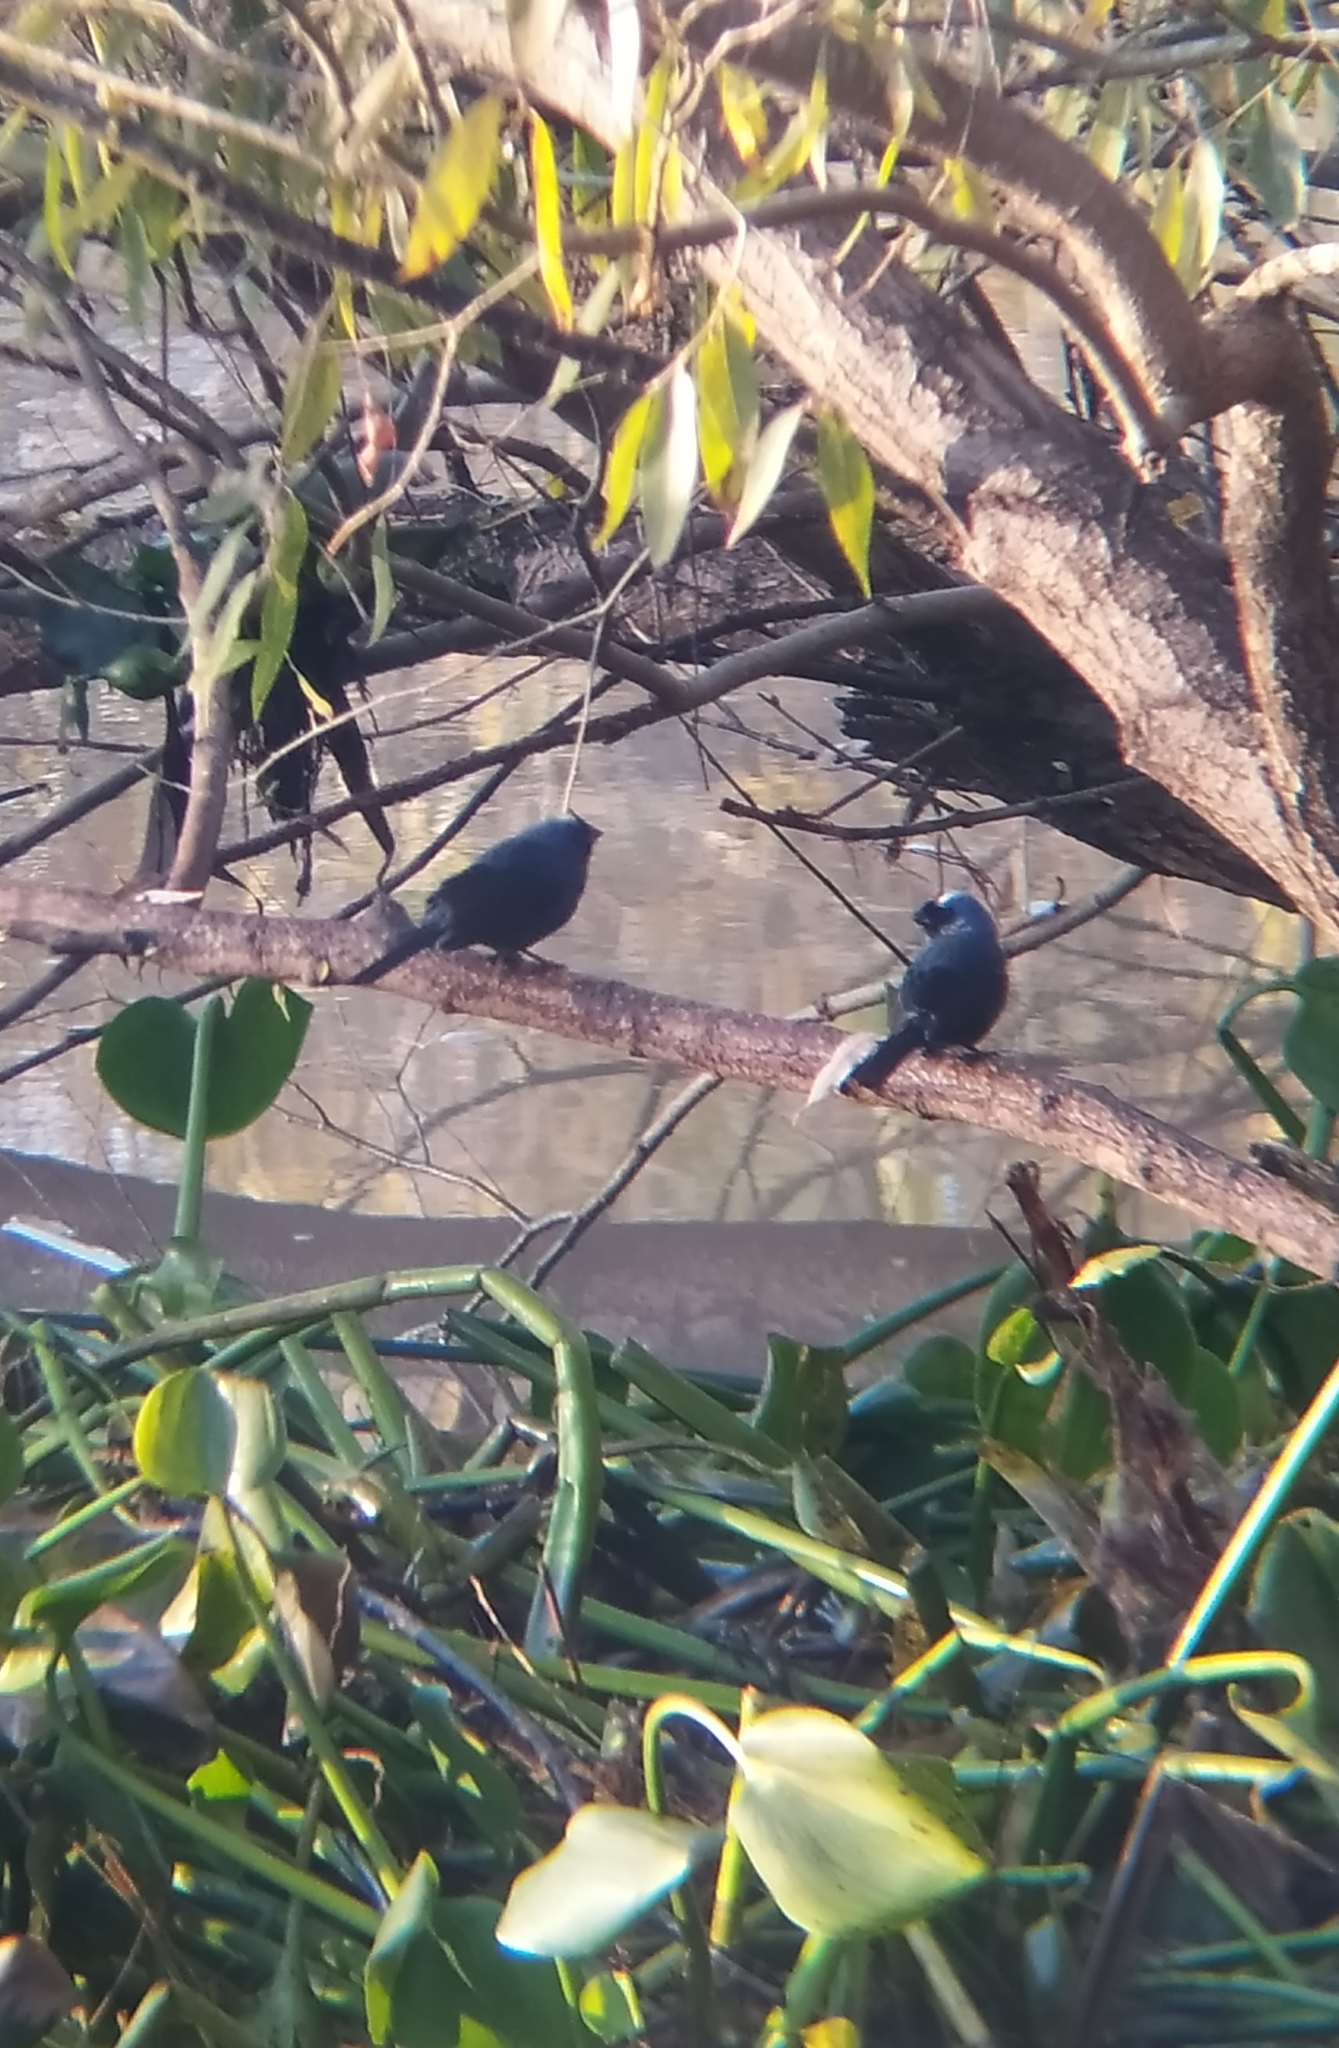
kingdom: Animalia
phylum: Chordata
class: Aves
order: Passeriformes
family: Thraupidae
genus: Stephanophorus
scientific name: Stephanophorus diadematus
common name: Diademed tanager
